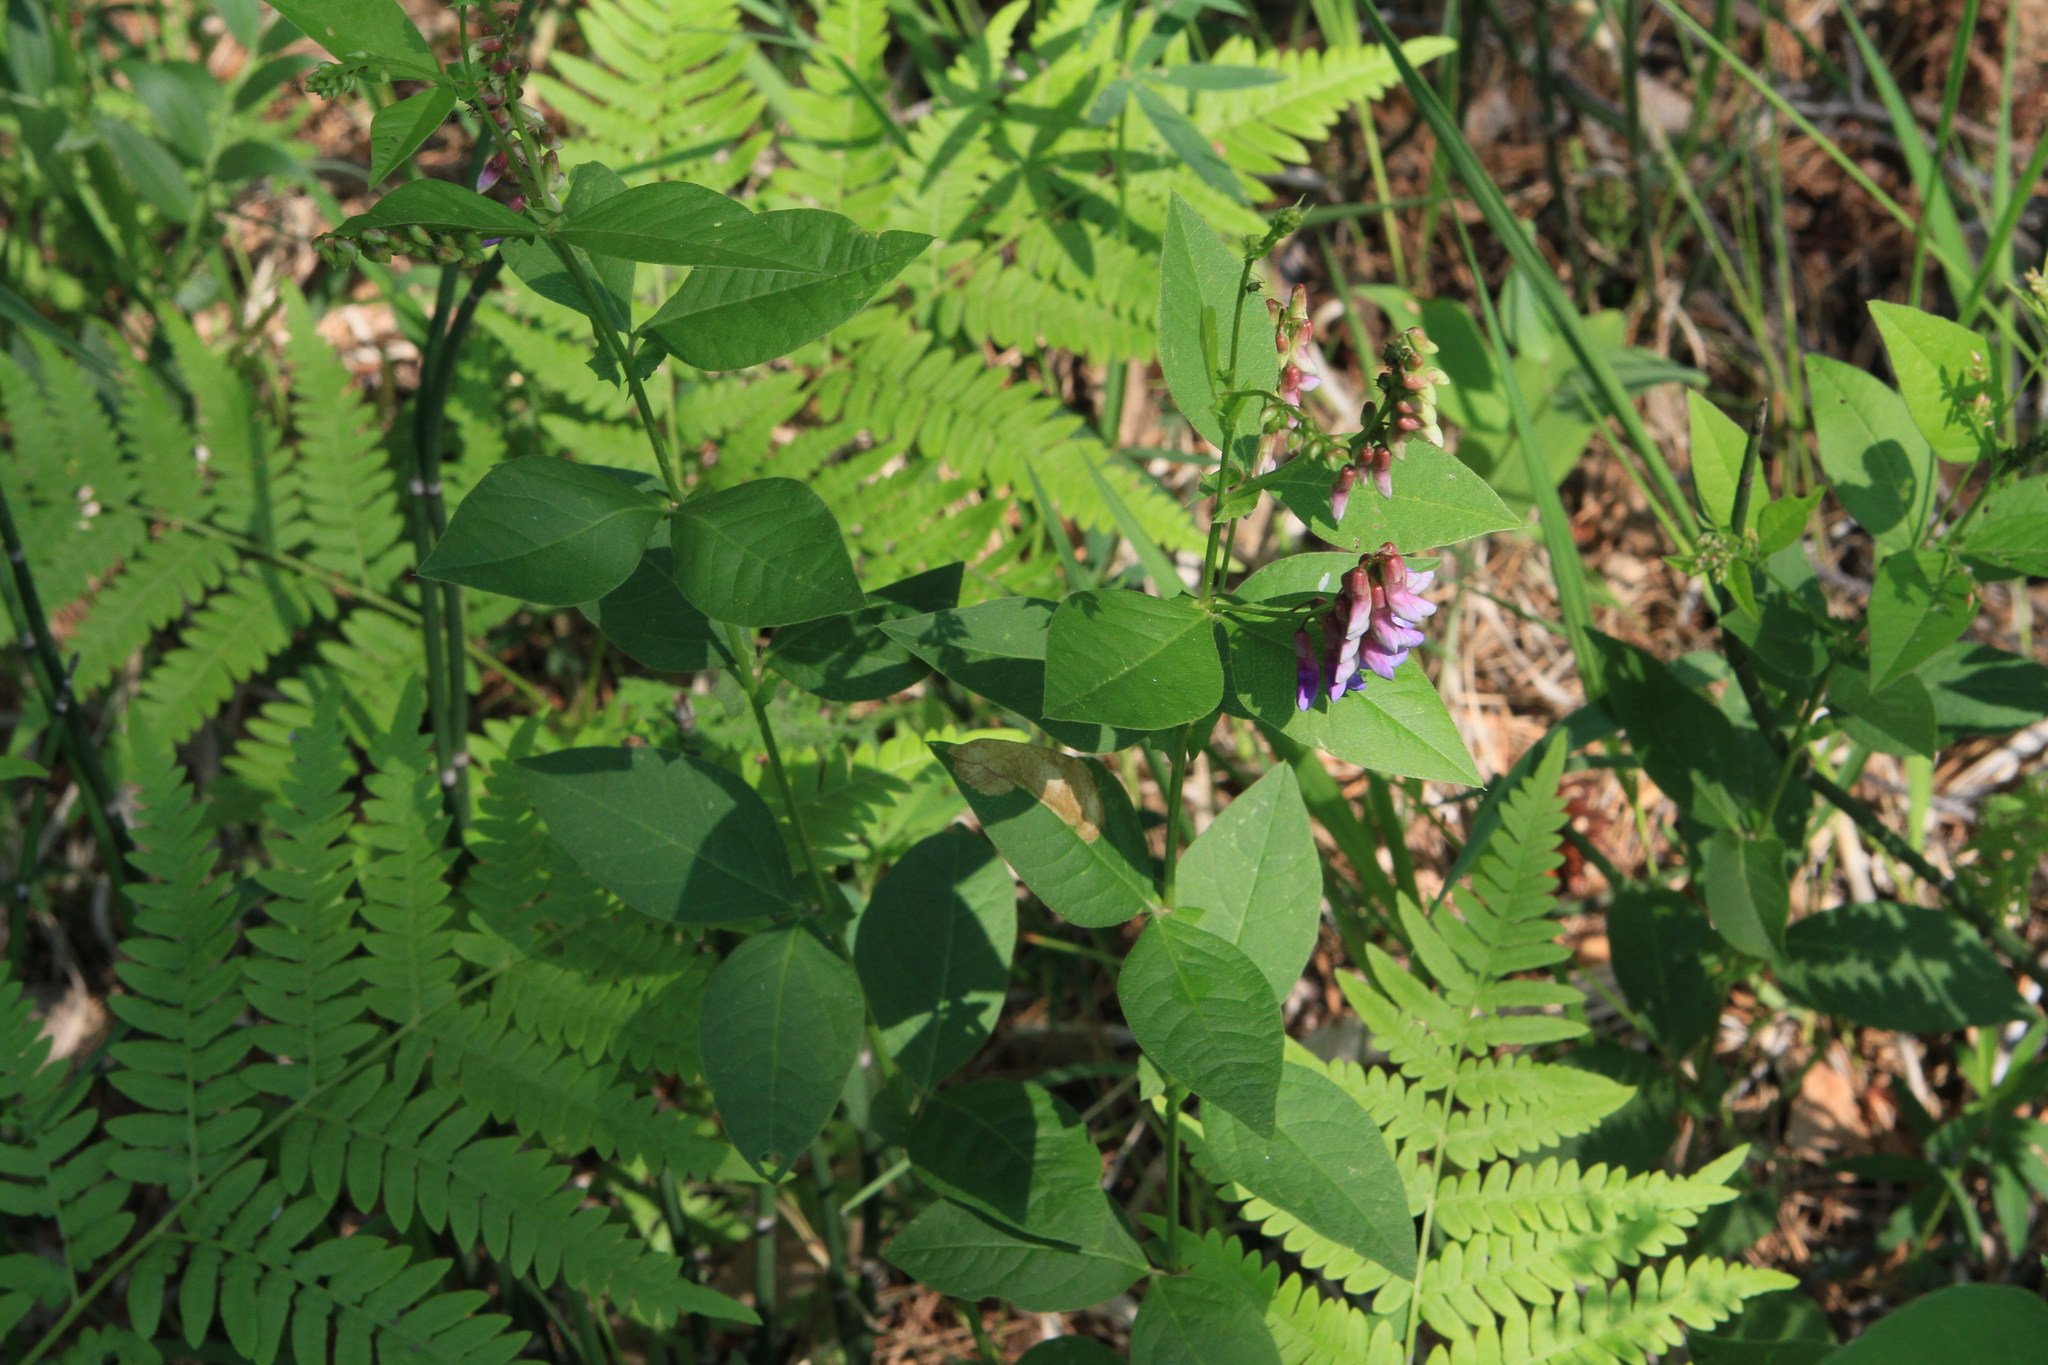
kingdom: Plantae
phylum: Tracheophyta
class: Magnoliopsida
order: Fabales
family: Fabaceae
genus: Vicia
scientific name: Vicia unijuga
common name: Two-leaf vetch
